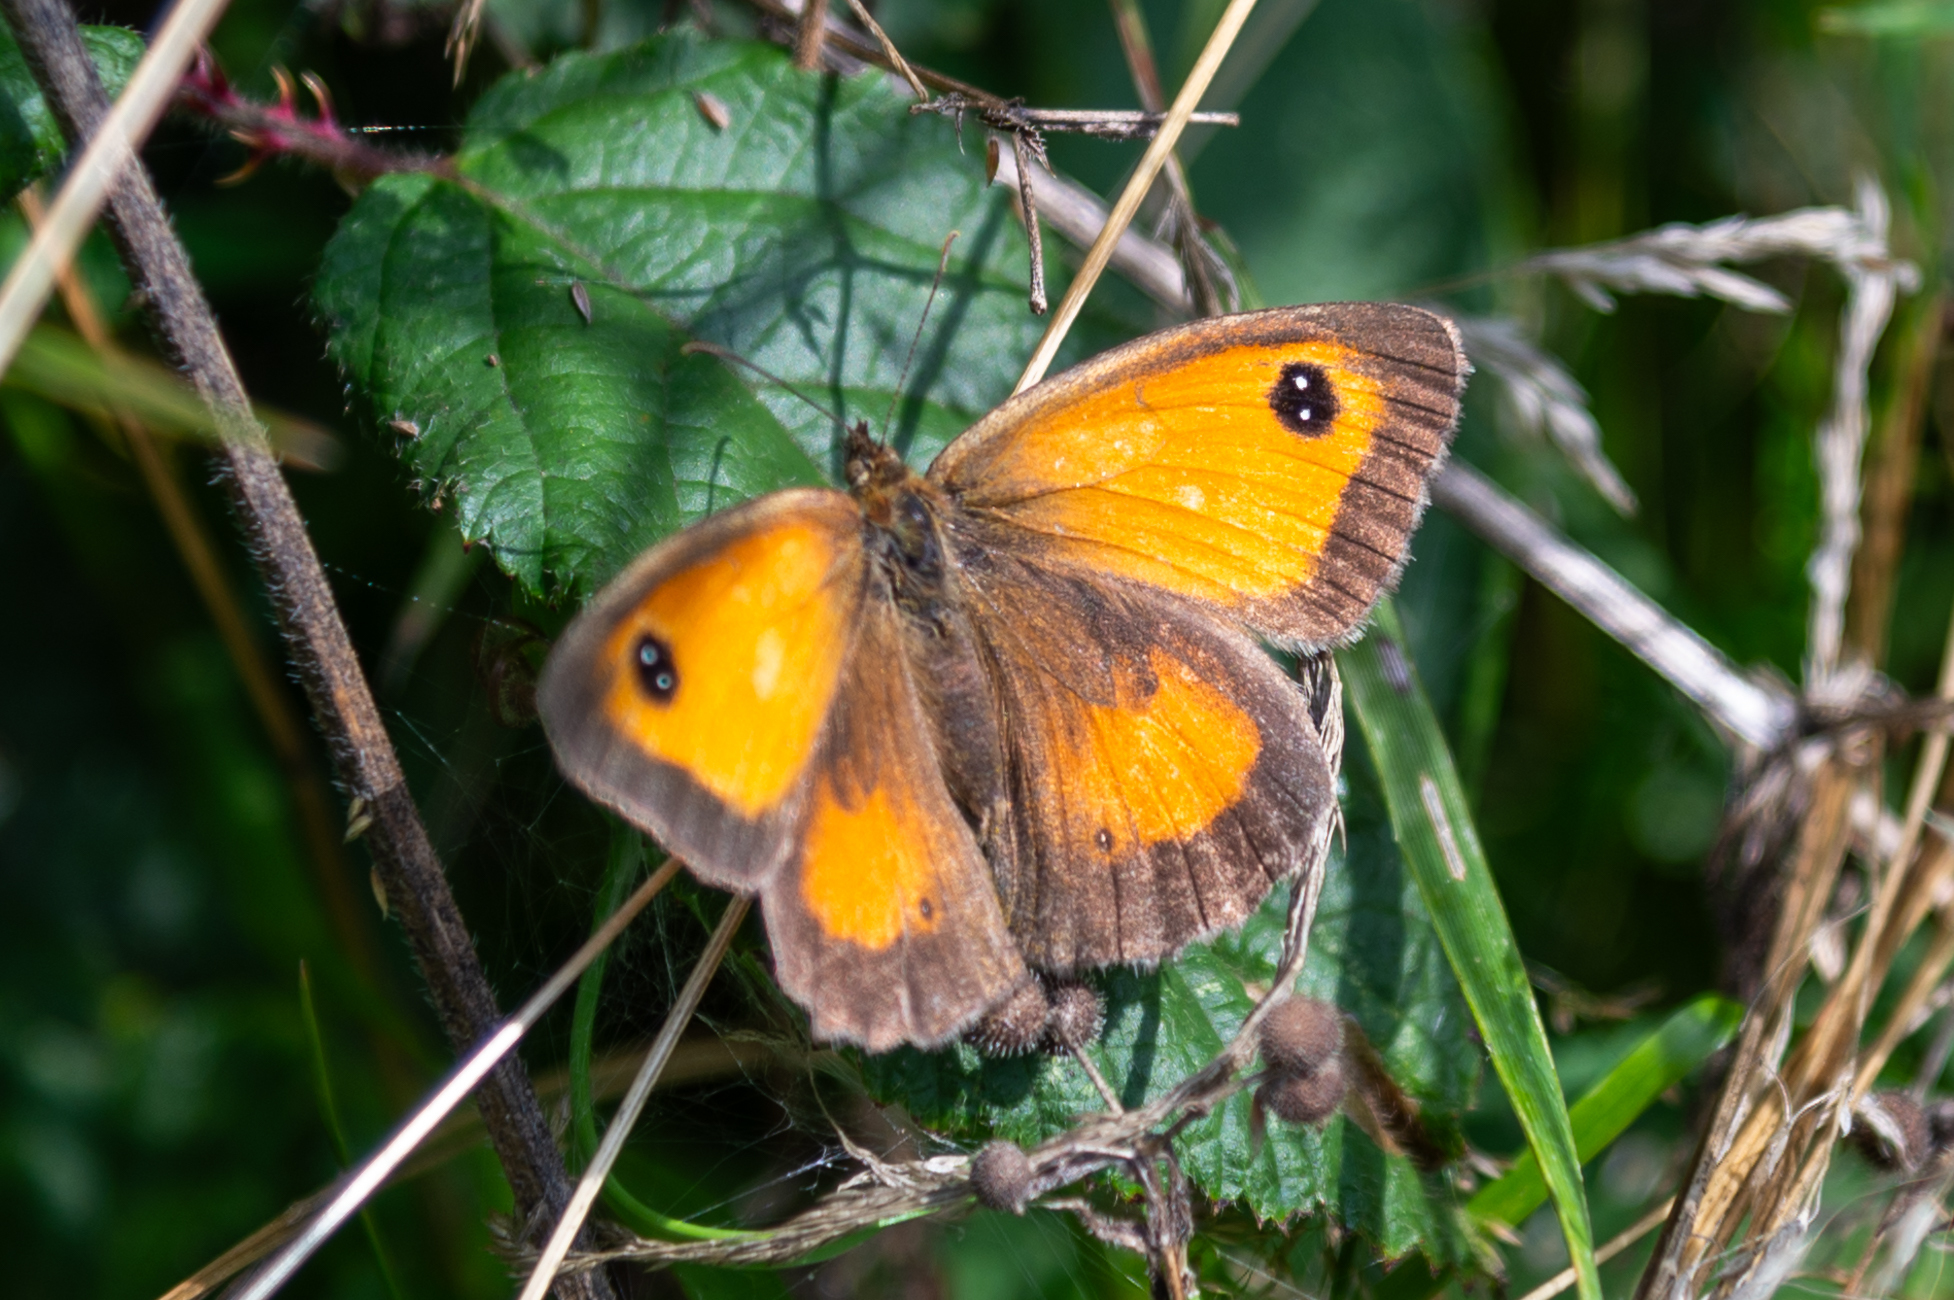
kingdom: Animalia
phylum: Arthropoda
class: Insecta
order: Lepidoptera
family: Nymphalidae
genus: Pyronia
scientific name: Pyronia tithonus
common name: Gatekeeper
